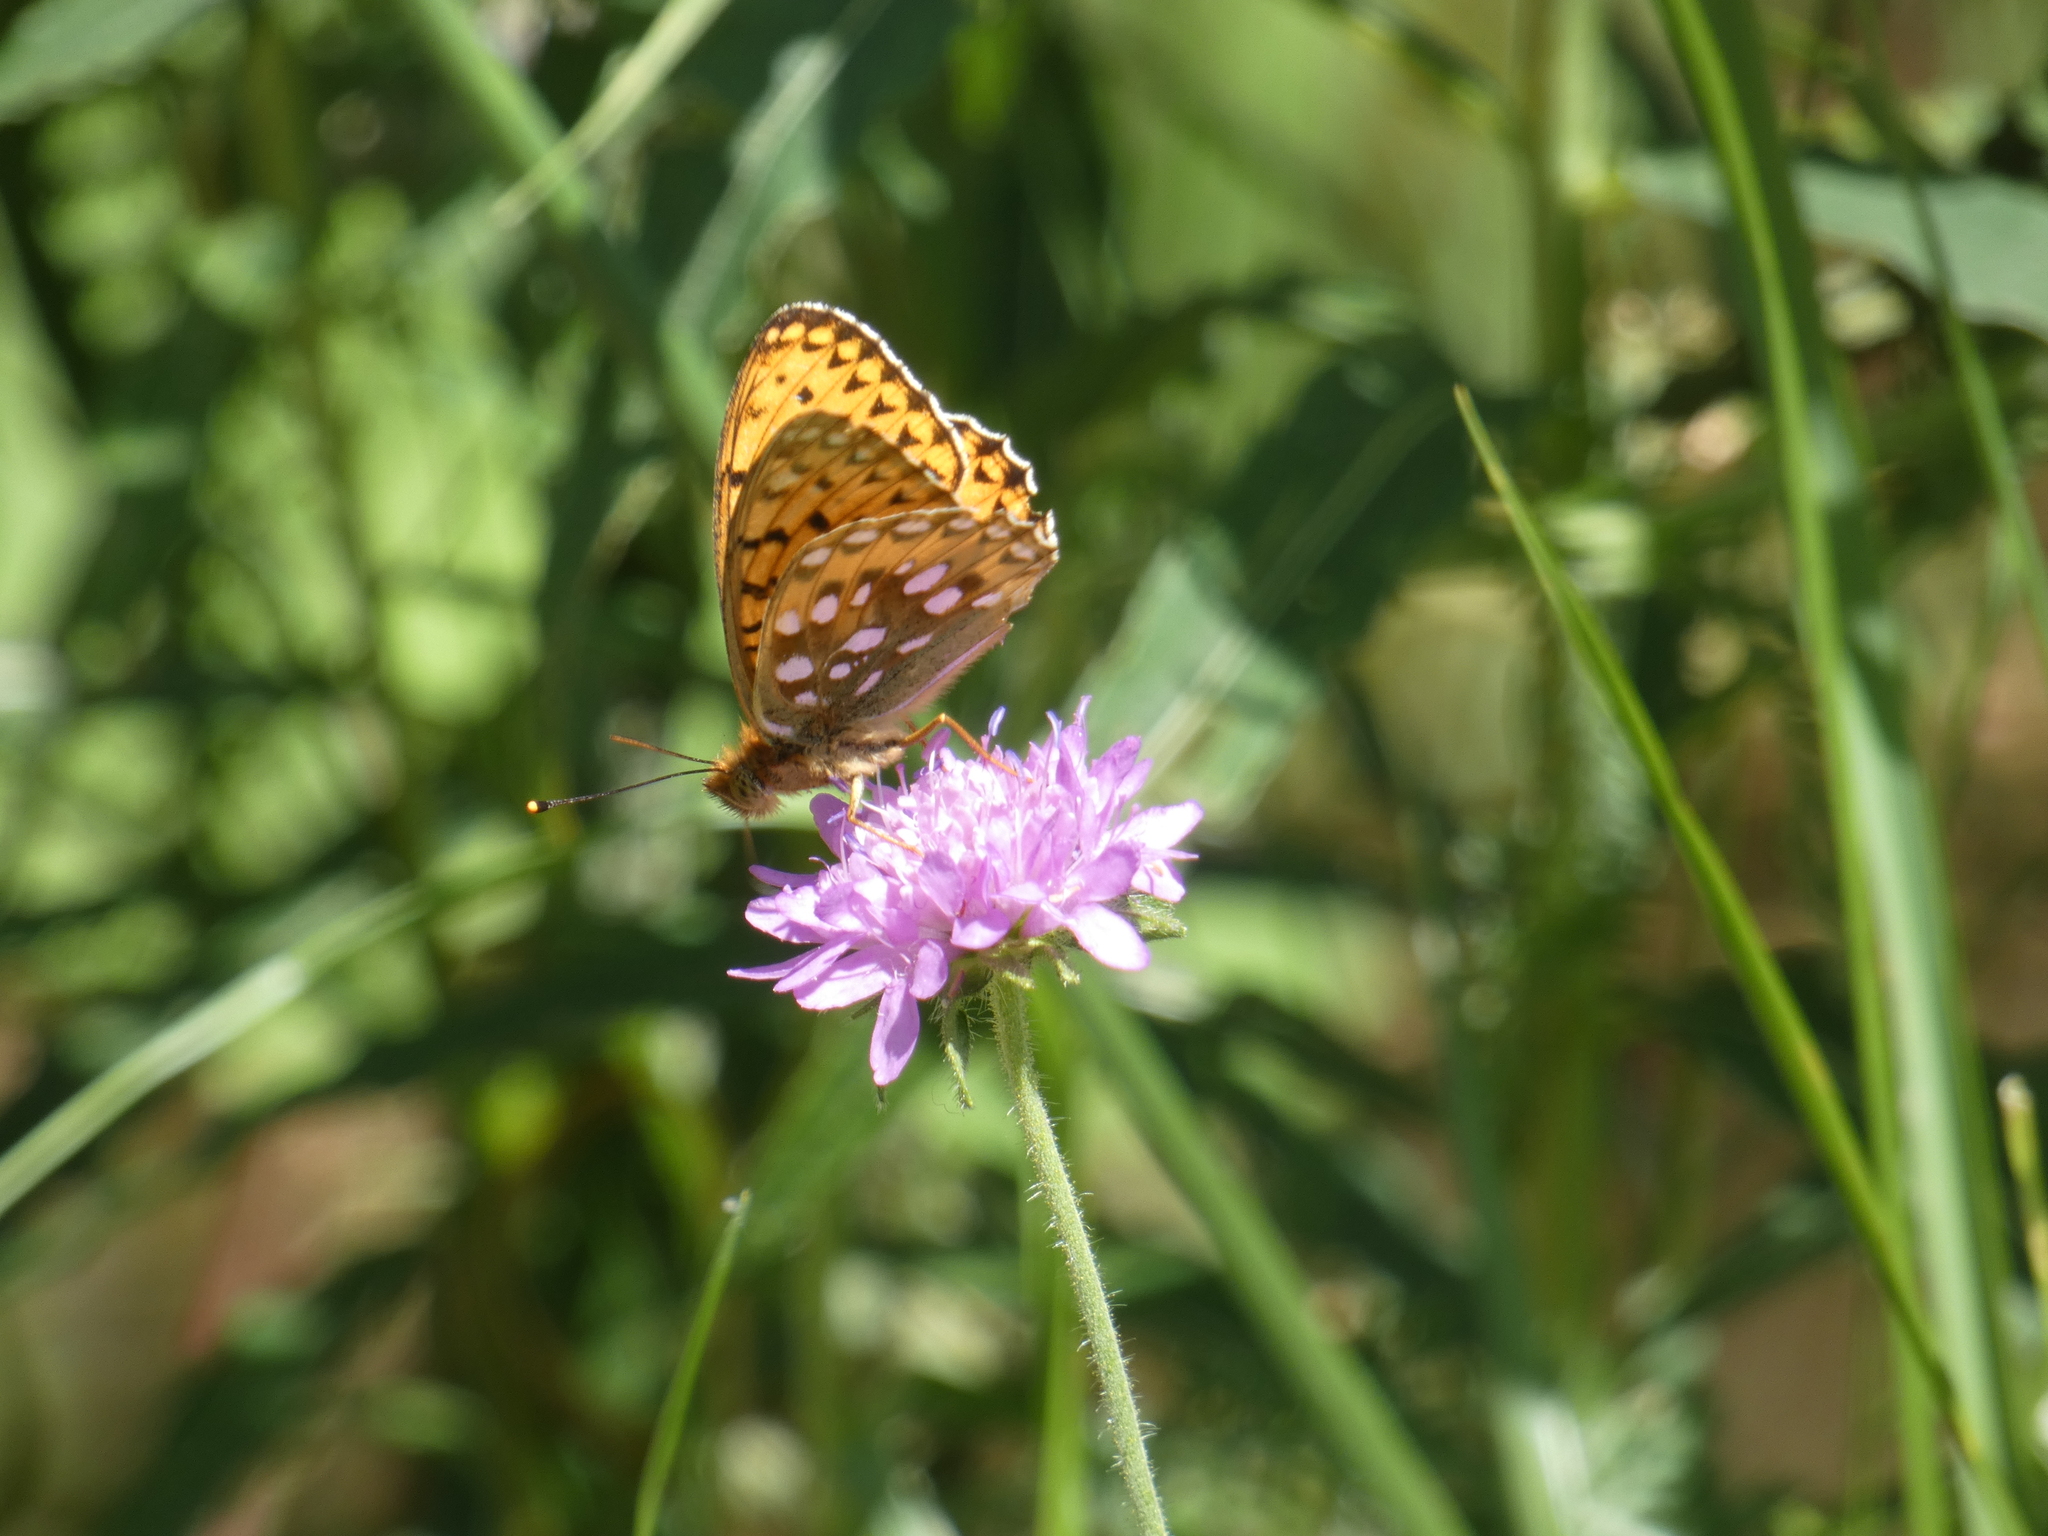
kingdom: Animalia
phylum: Arthropoda
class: Insecta
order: Lepidoptera
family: Nymphalidae
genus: Speyeria
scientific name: Speyeria aglaja
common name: Dark green fritillary
